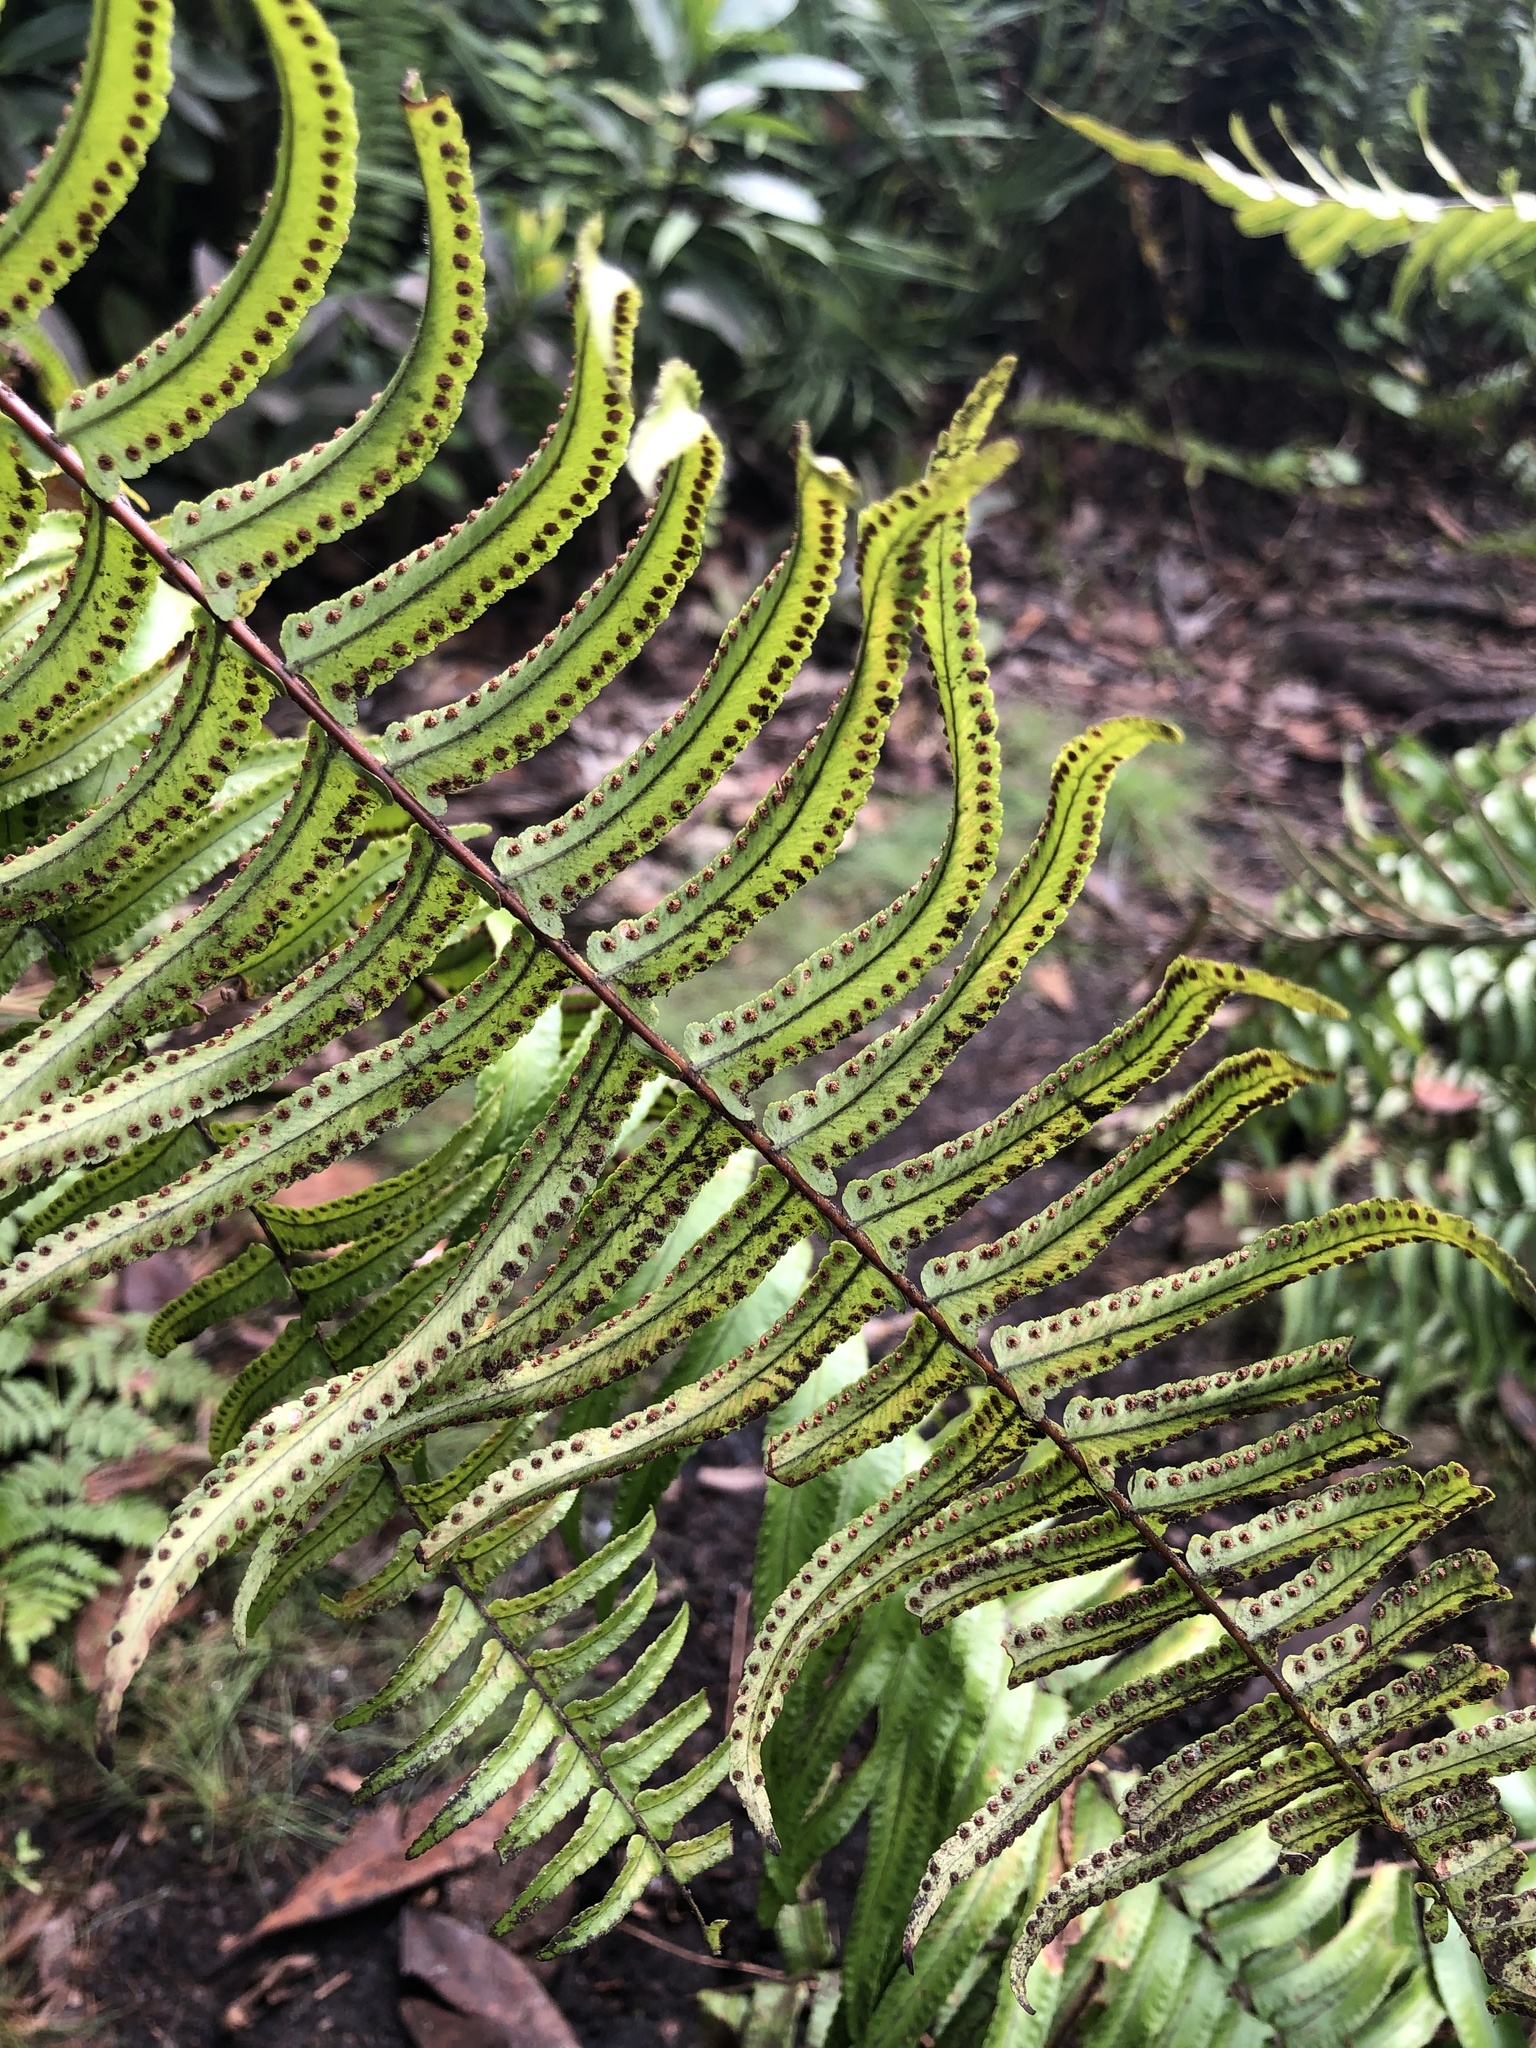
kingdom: Plantae
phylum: Tracheophyta
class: Polypodiopsida
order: Polypodiales
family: Nephrolepidaceae
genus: Nephrolepis
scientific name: Nephrolepis biserrata
